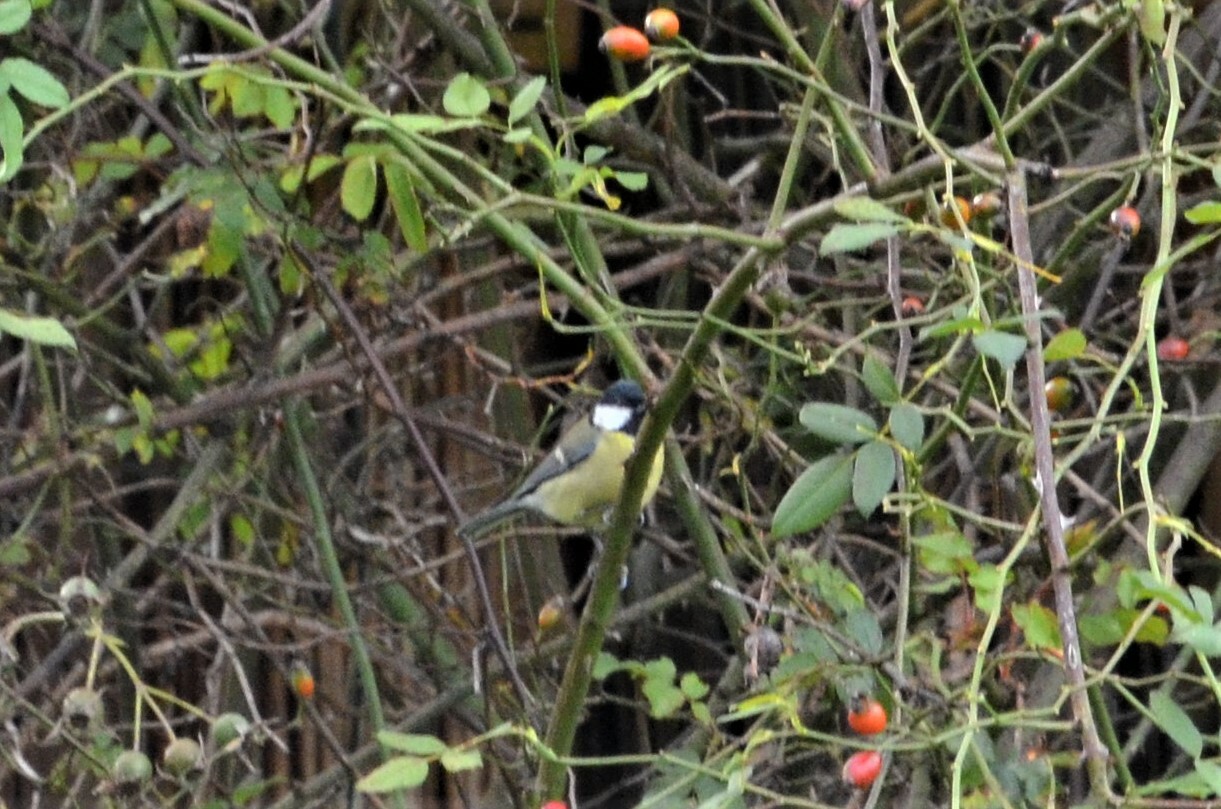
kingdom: Animalia
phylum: Chordata
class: Aves
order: Passeriformes
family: Paridae
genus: Parus
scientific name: Parus major
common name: Great tit
